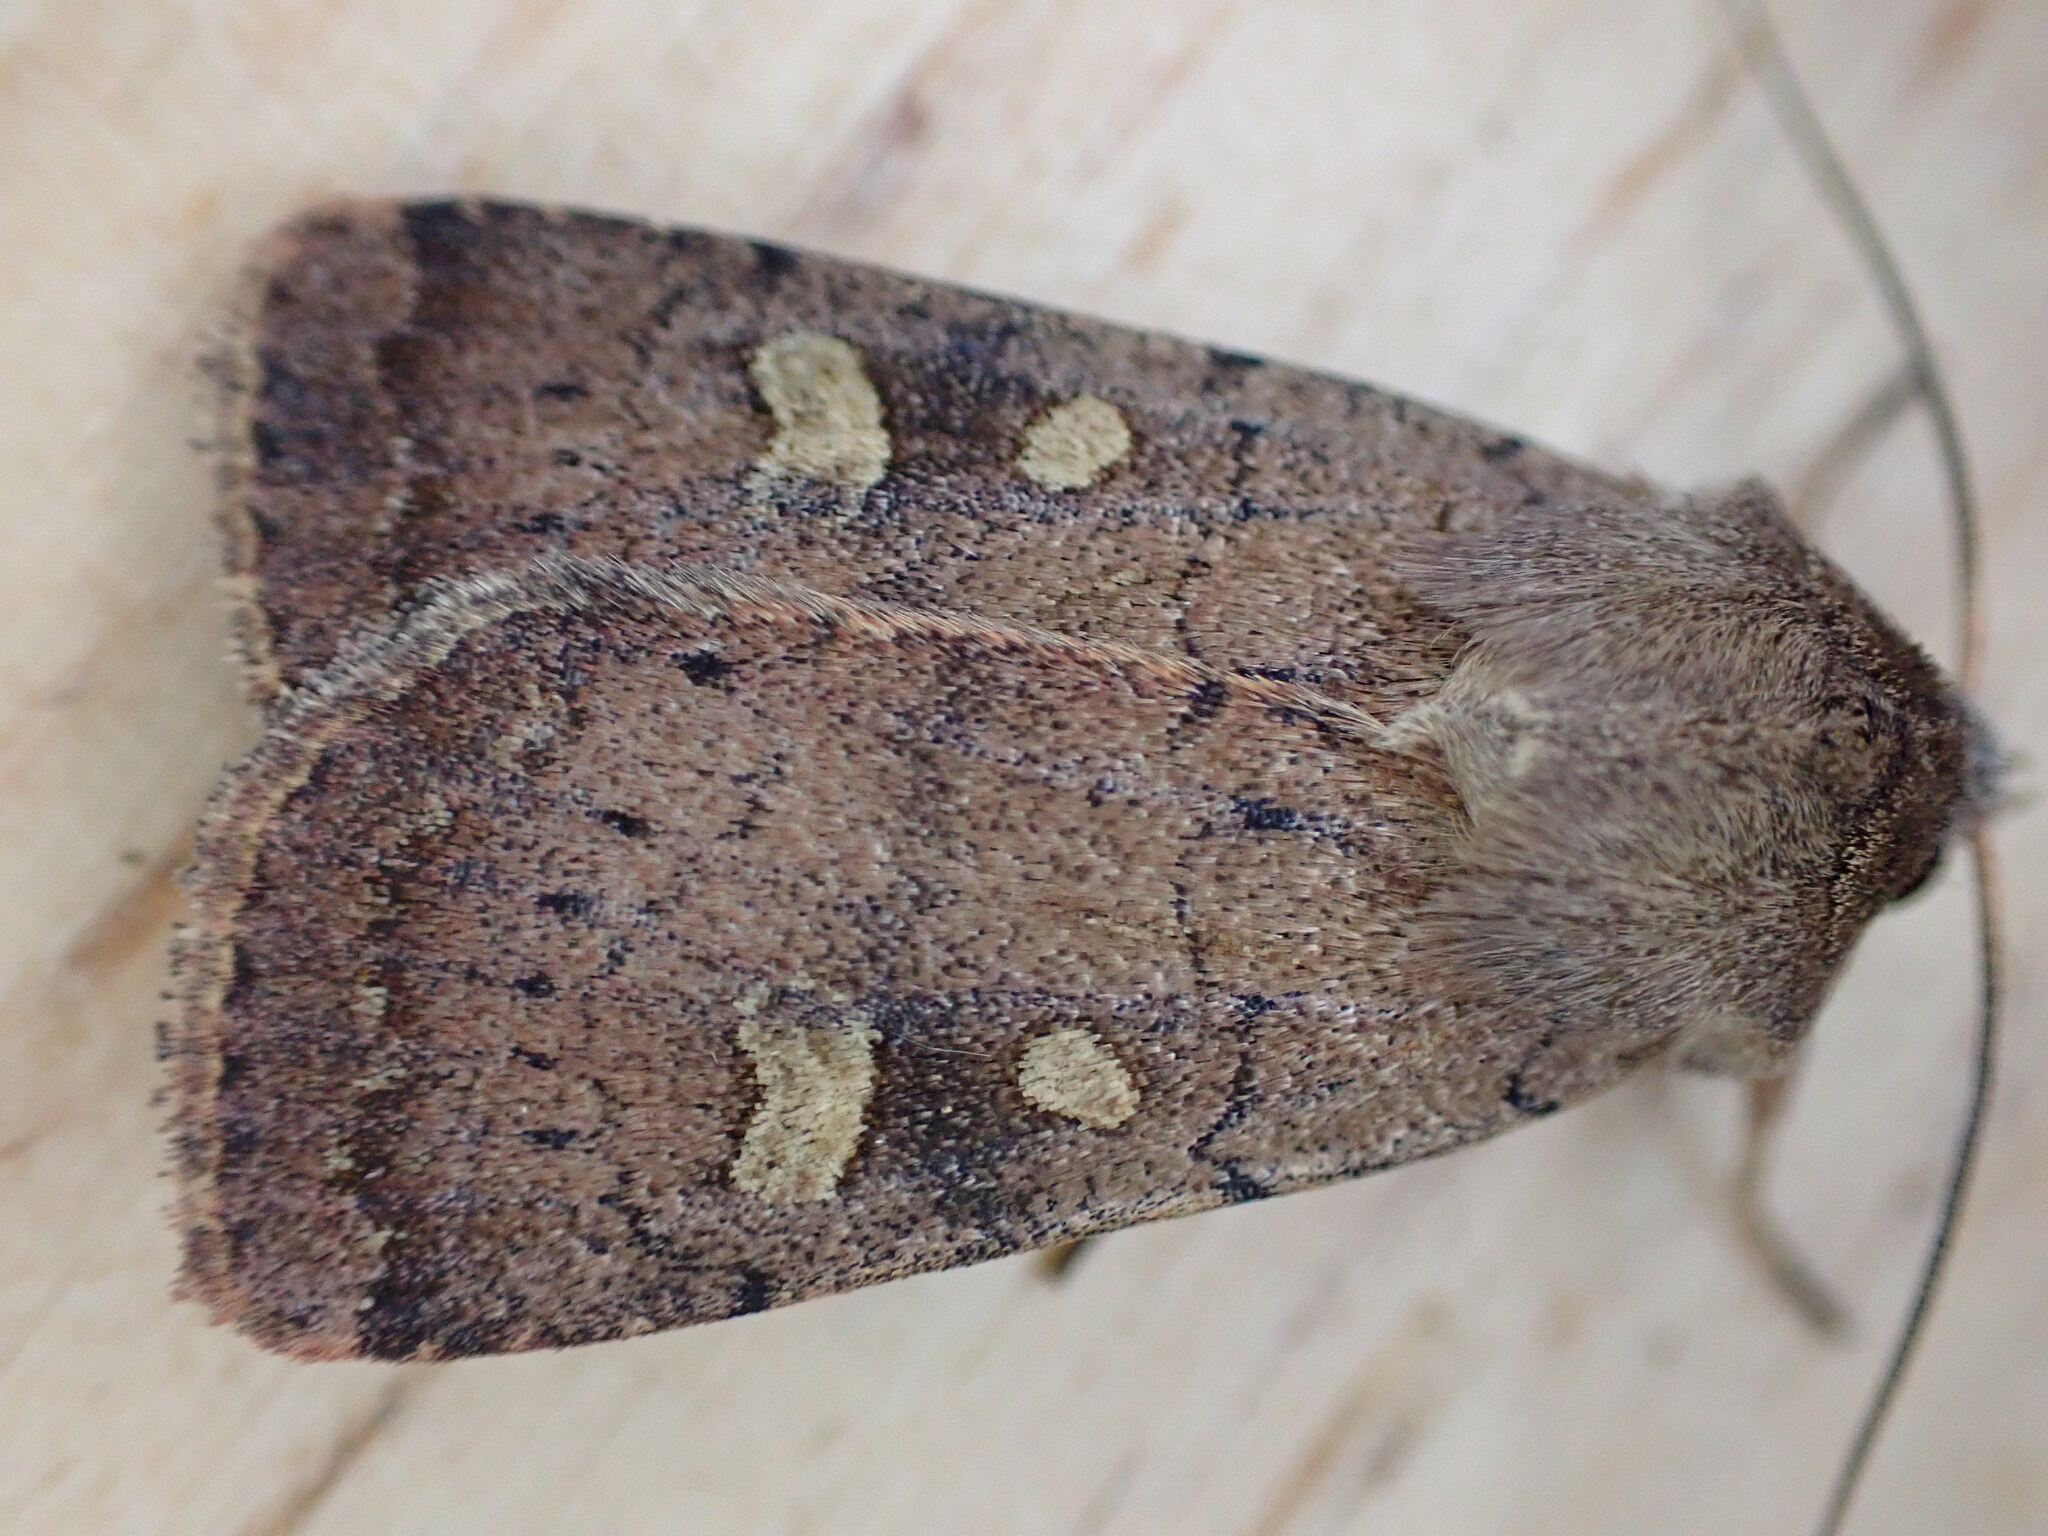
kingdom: Animalia
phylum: Arthropoda
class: Insecta
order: Lepidoptera
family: Noctuidae
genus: Xestia
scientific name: Xestia xanthographa
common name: Square-spot rustic
